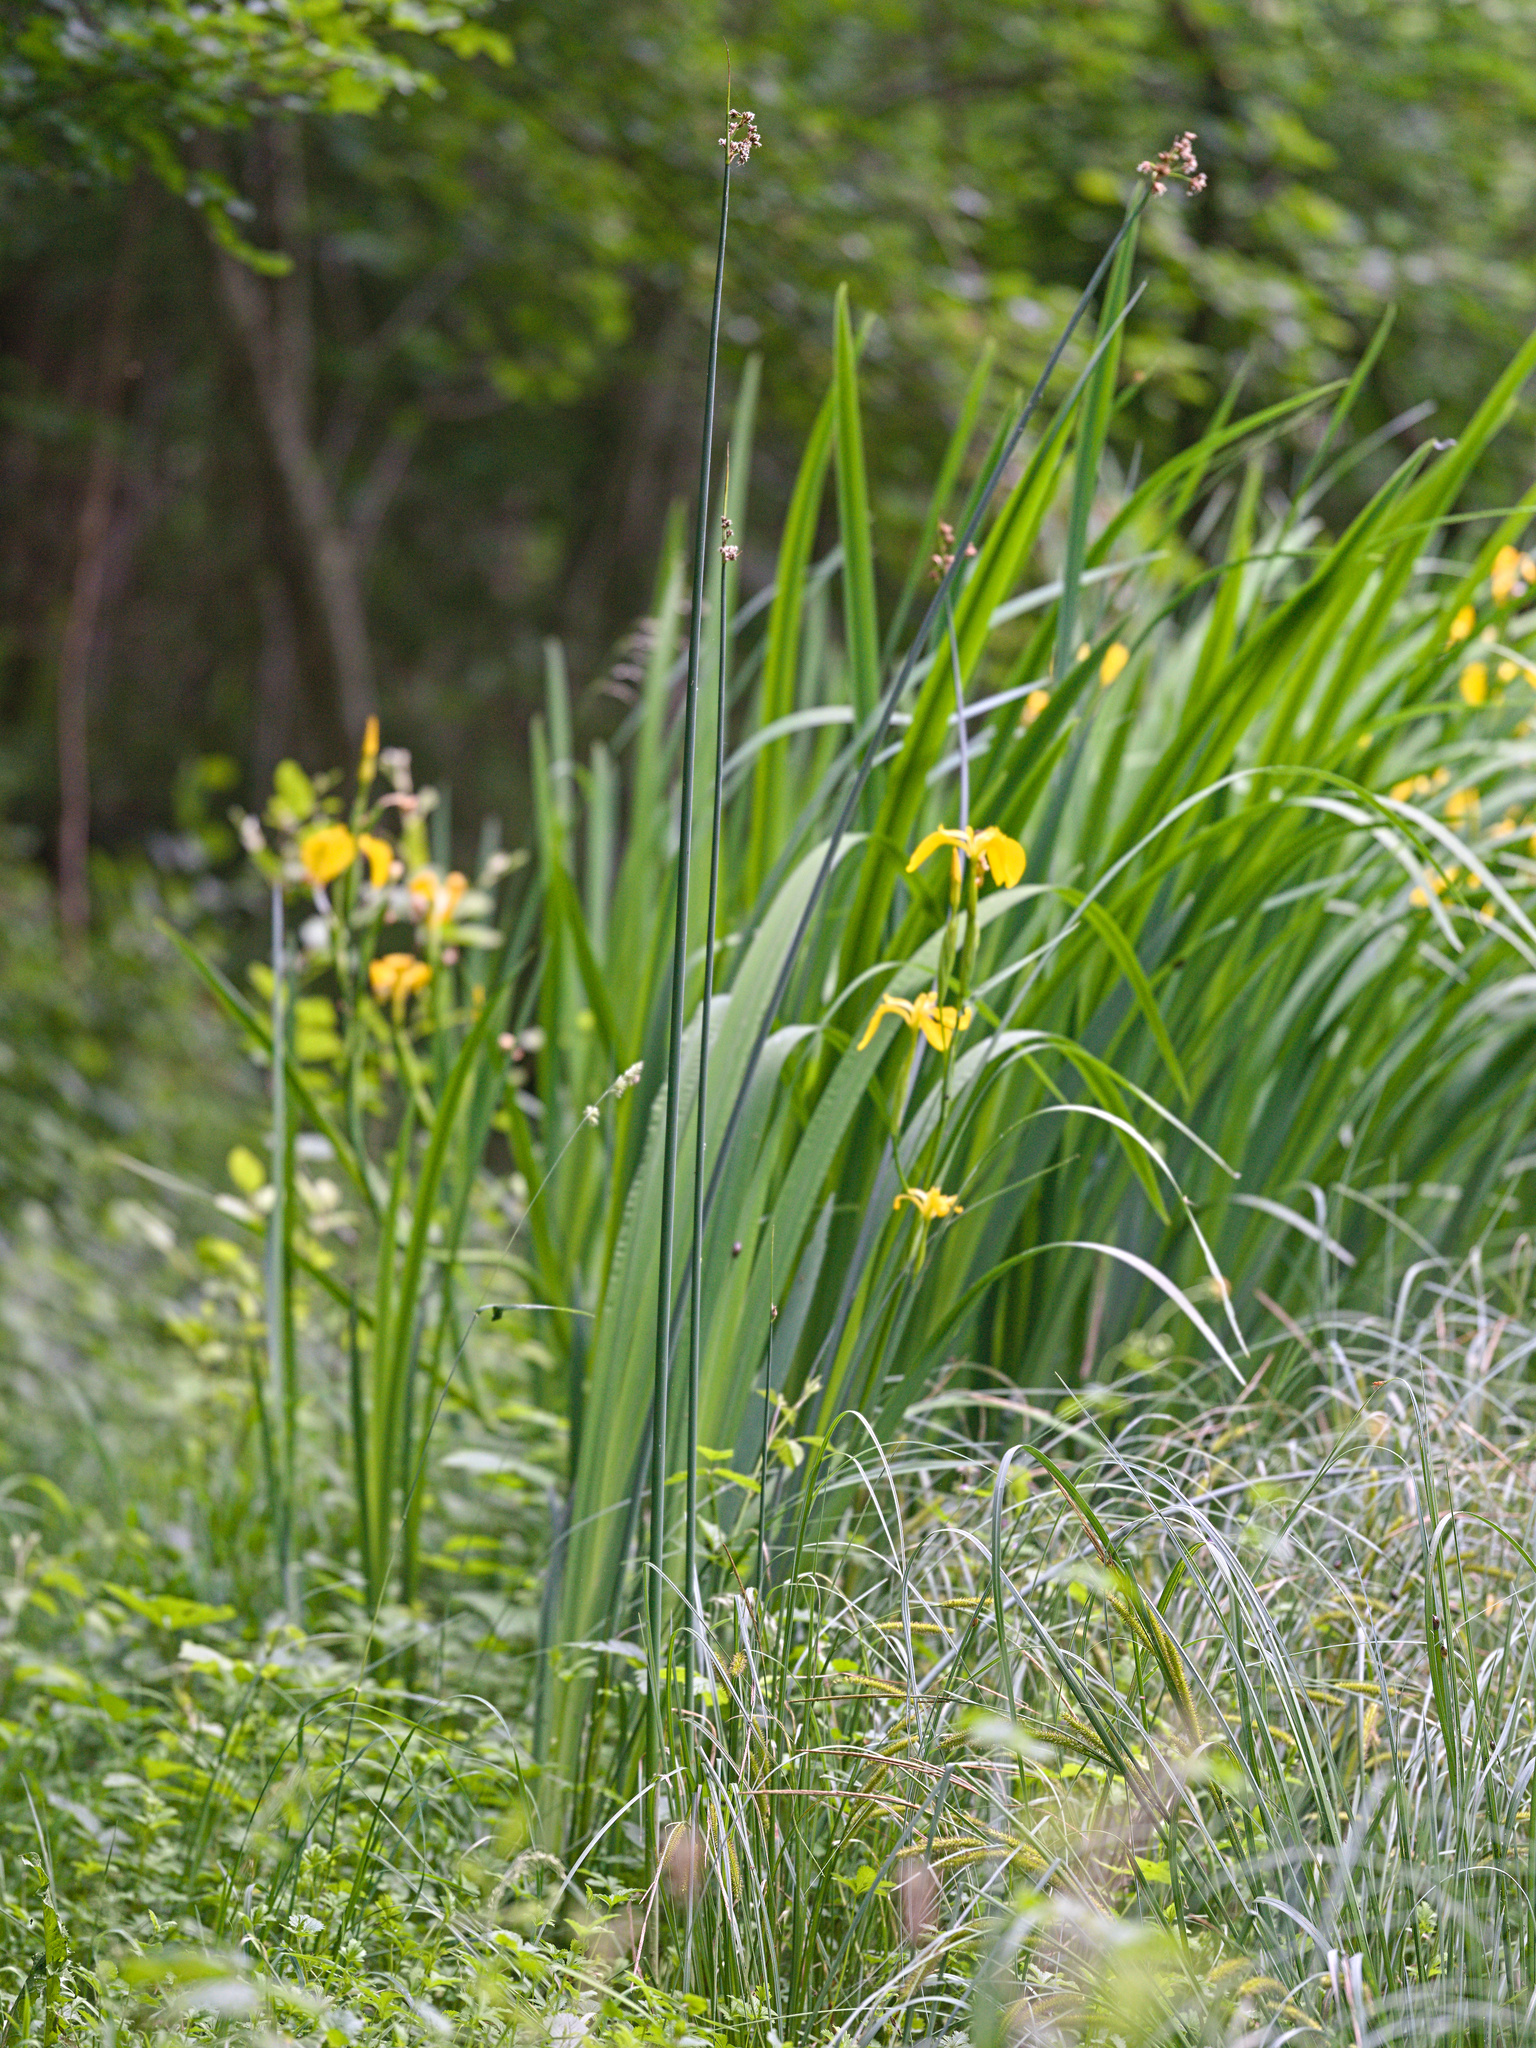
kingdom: Plantae
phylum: Tracheophyta
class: Liliopsida
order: Poales
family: Juncaceae
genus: Juncus
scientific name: Juncus effusus
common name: Soft rush
